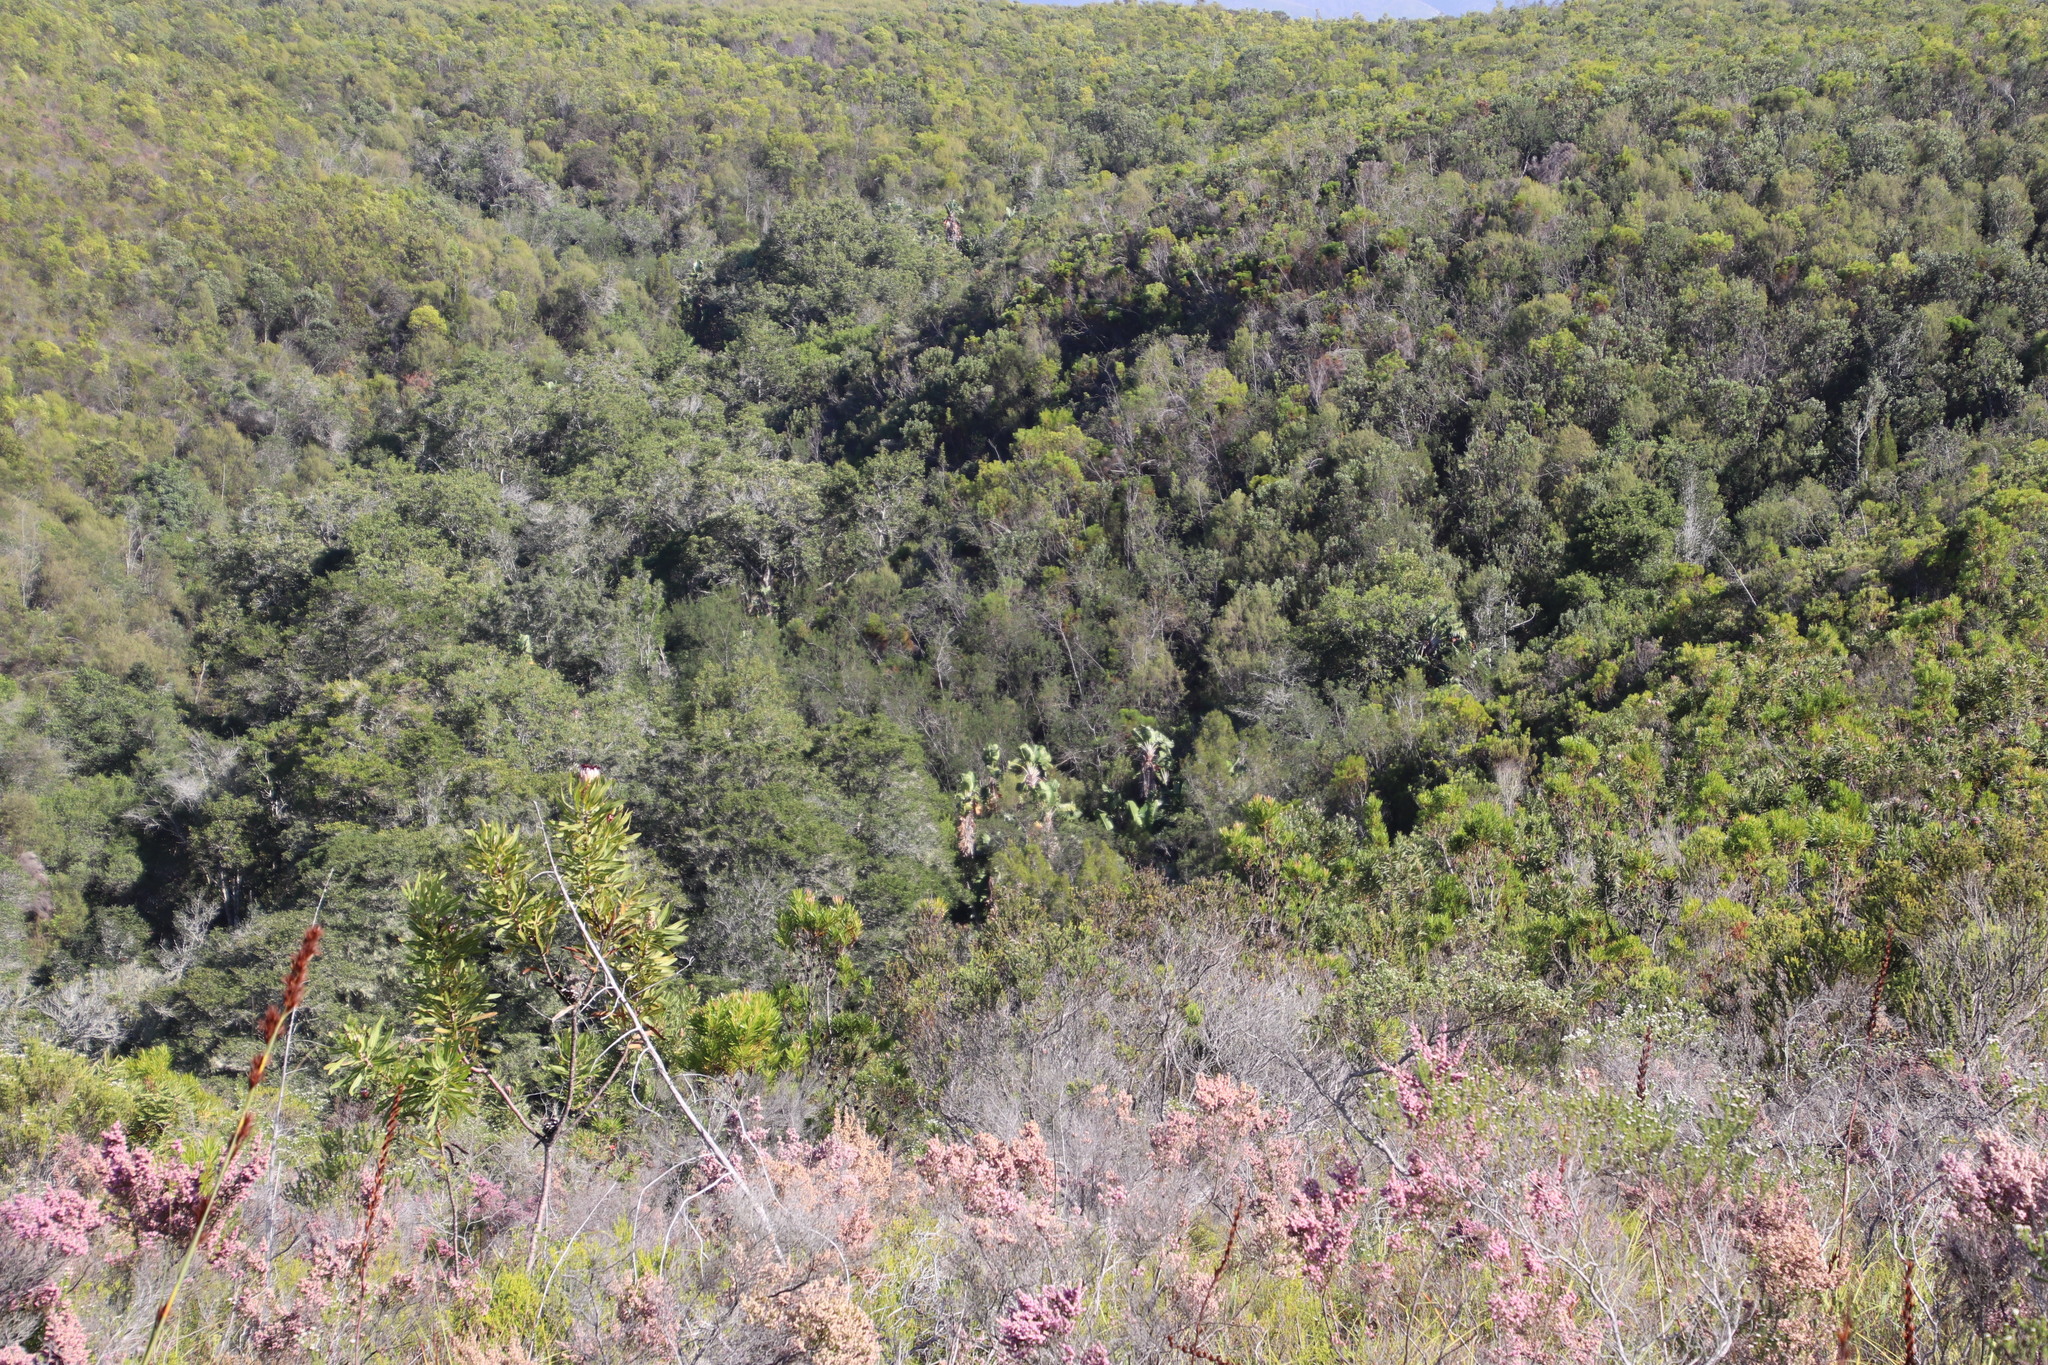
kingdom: Plantae
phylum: Tracheophyta
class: Liliopsida
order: Zingiberales
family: Strelitziaceae
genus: Strelitzia
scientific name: Strelitzia alba
